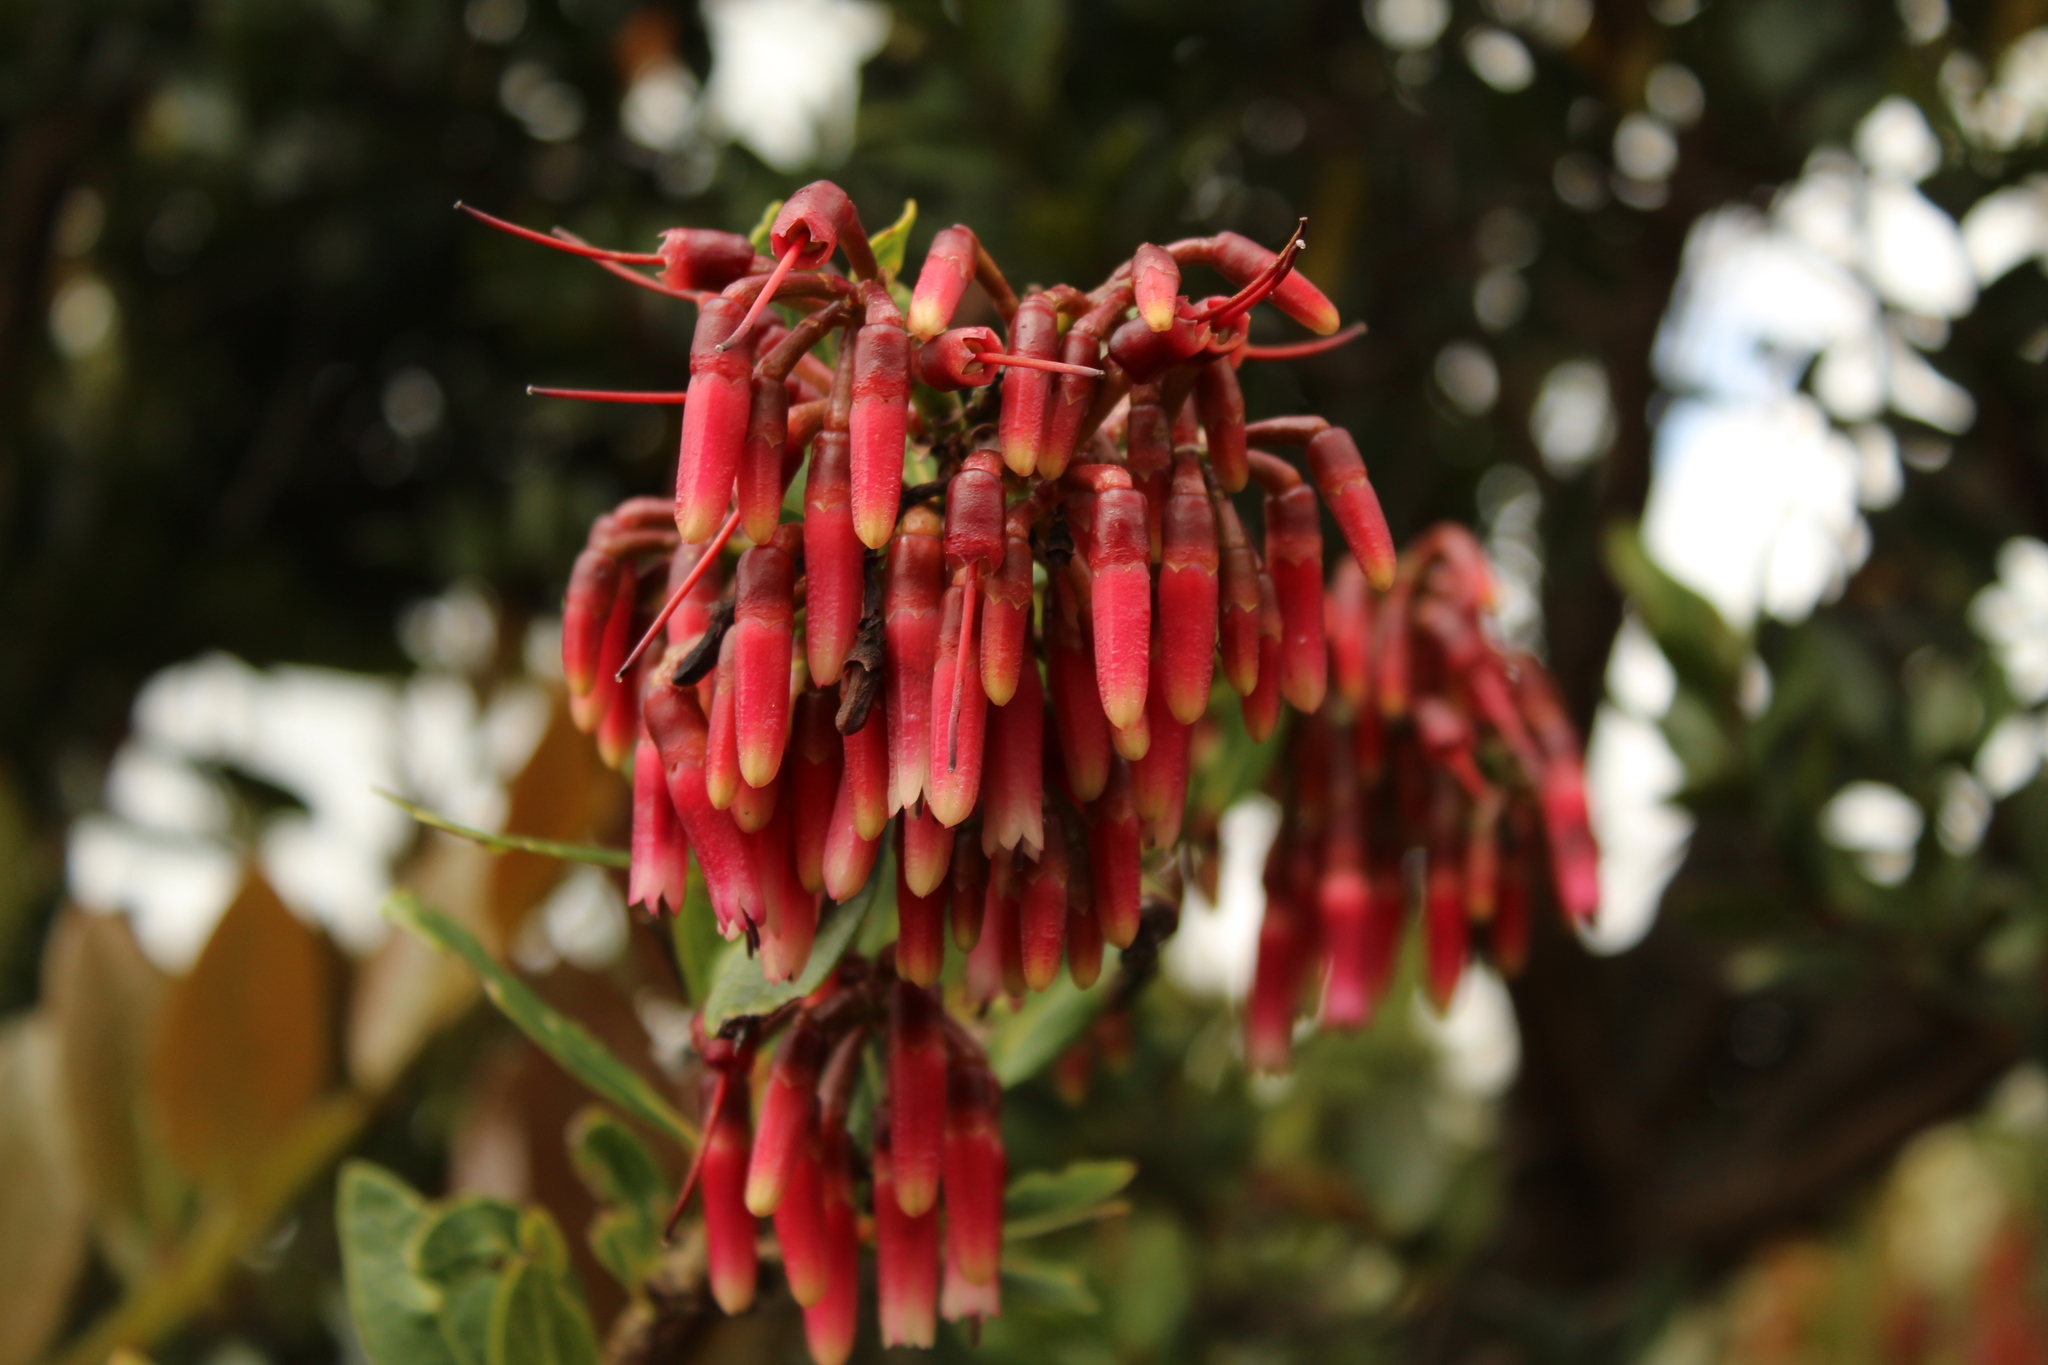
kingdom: Plantae
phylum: Tracheophyta
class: Magnoliopsida
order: Ericales
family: Ericaceae
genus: Macleania
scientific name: Macleania rupestris
